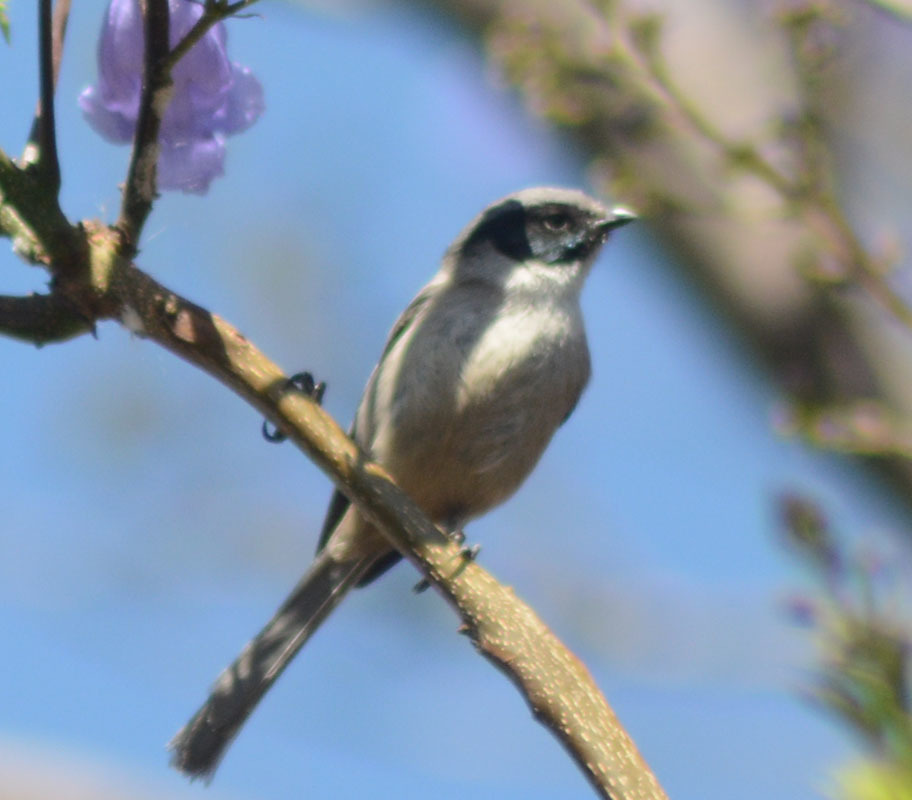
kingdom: Animalia
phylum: Chordata
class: Aves
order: Passeriformes
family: Aegithalidae
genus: Psaltriparus
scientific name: Psaltriparus minimus
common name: American bushtit
